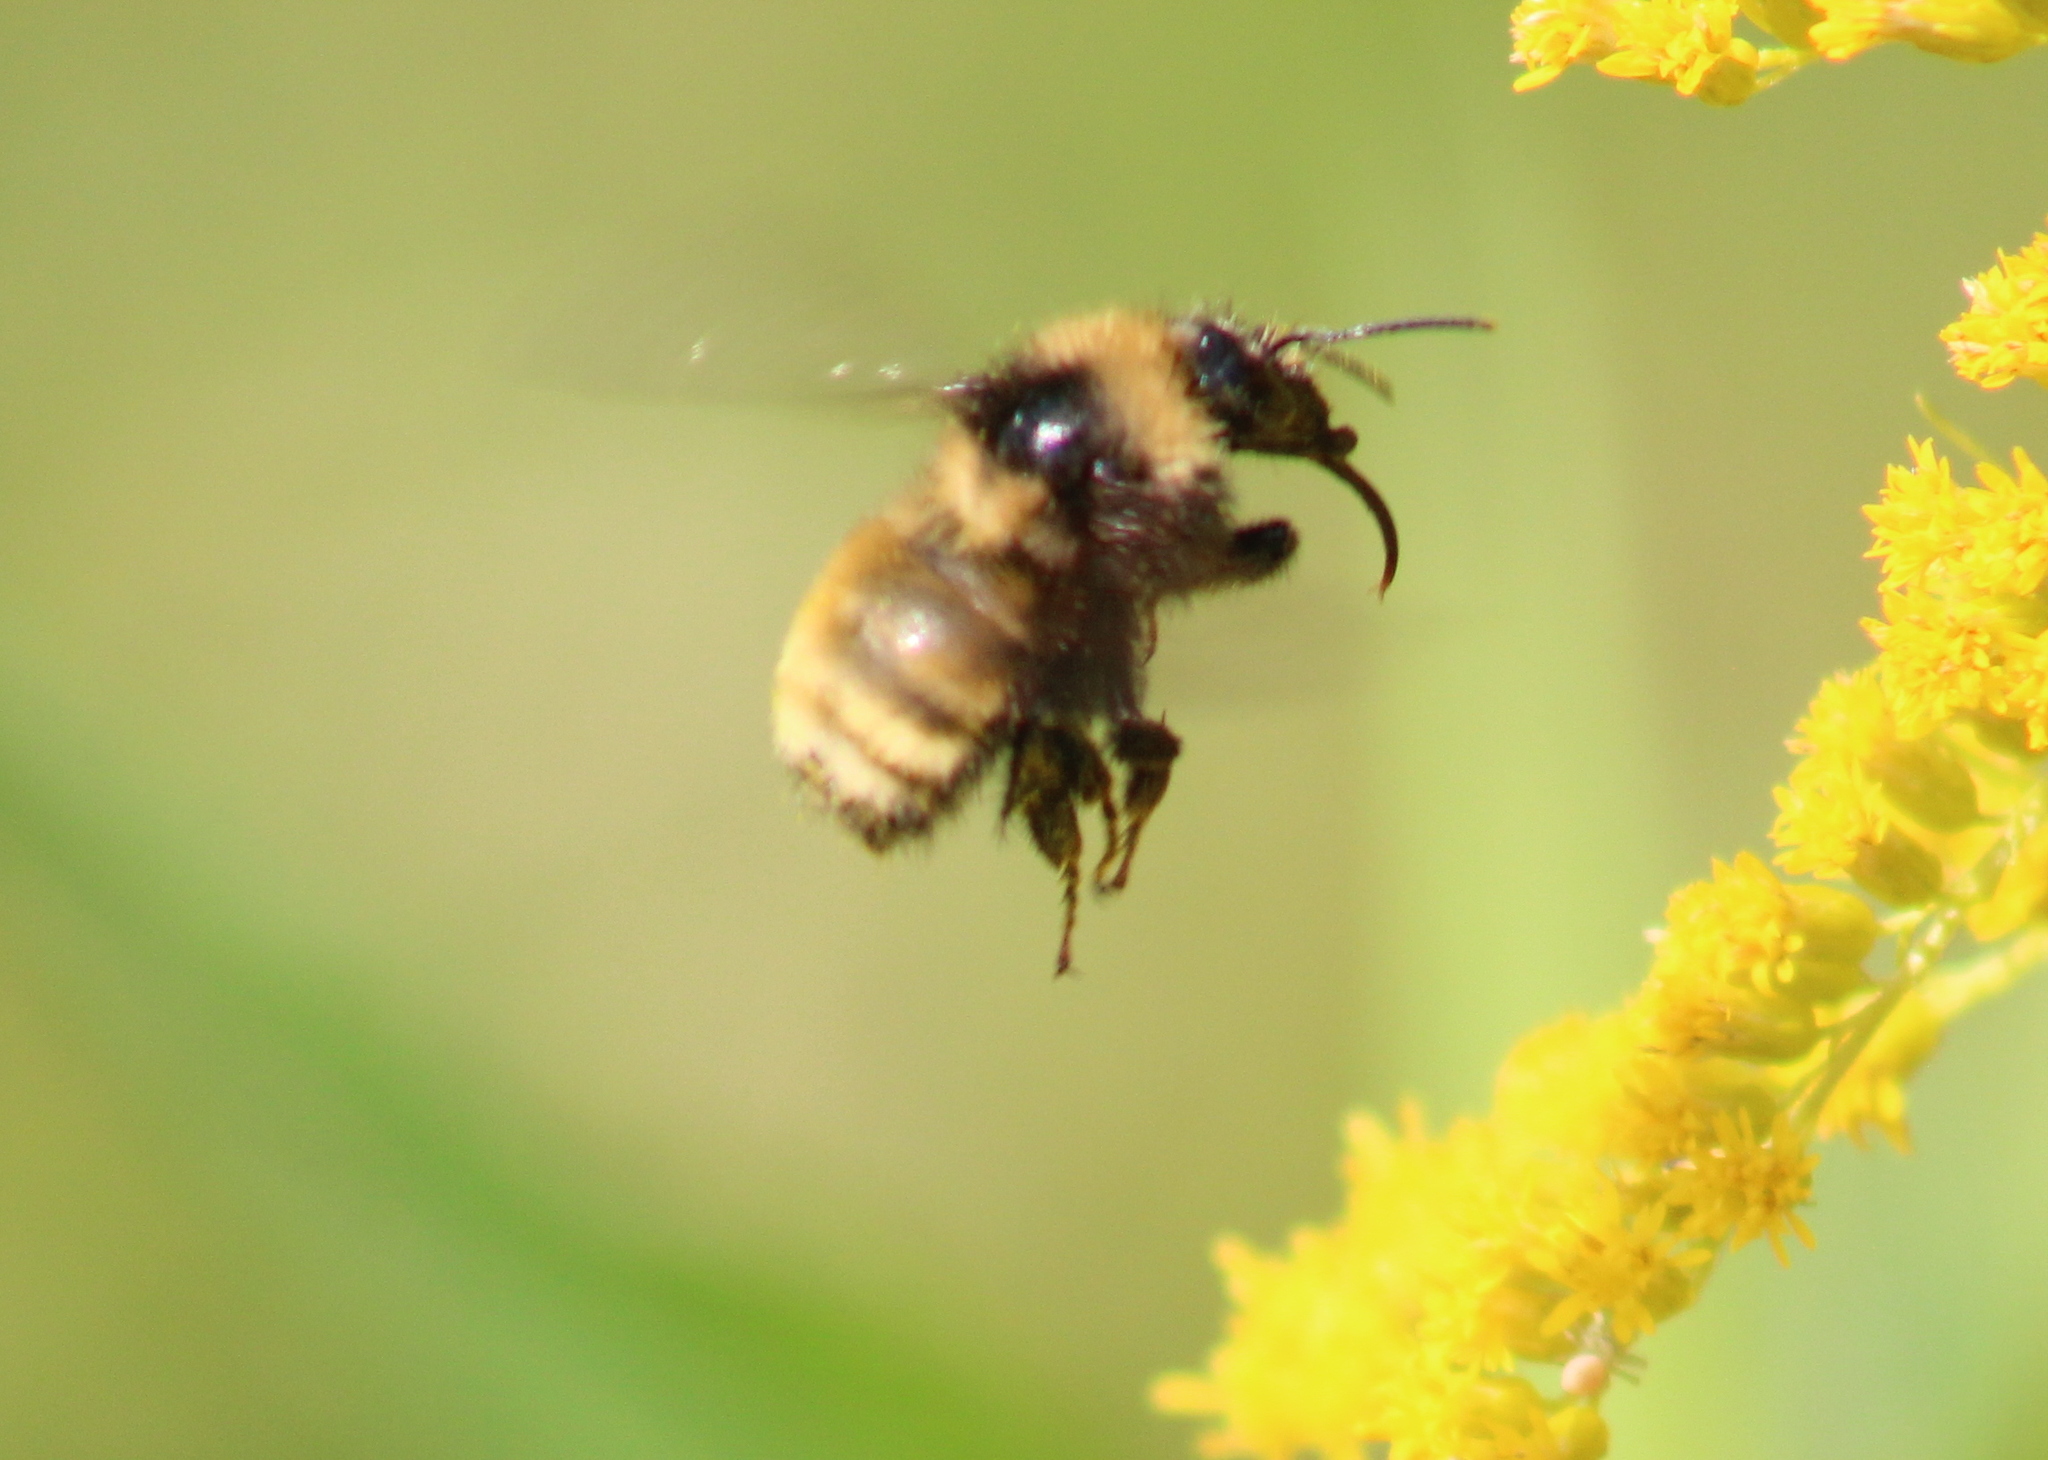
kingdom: Animalia
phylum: Arthropoda
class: Insecta
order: Hymenoptera
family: Apidae
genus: Bombus
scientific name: Bombus borealis
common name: Northern amber bumble bee
